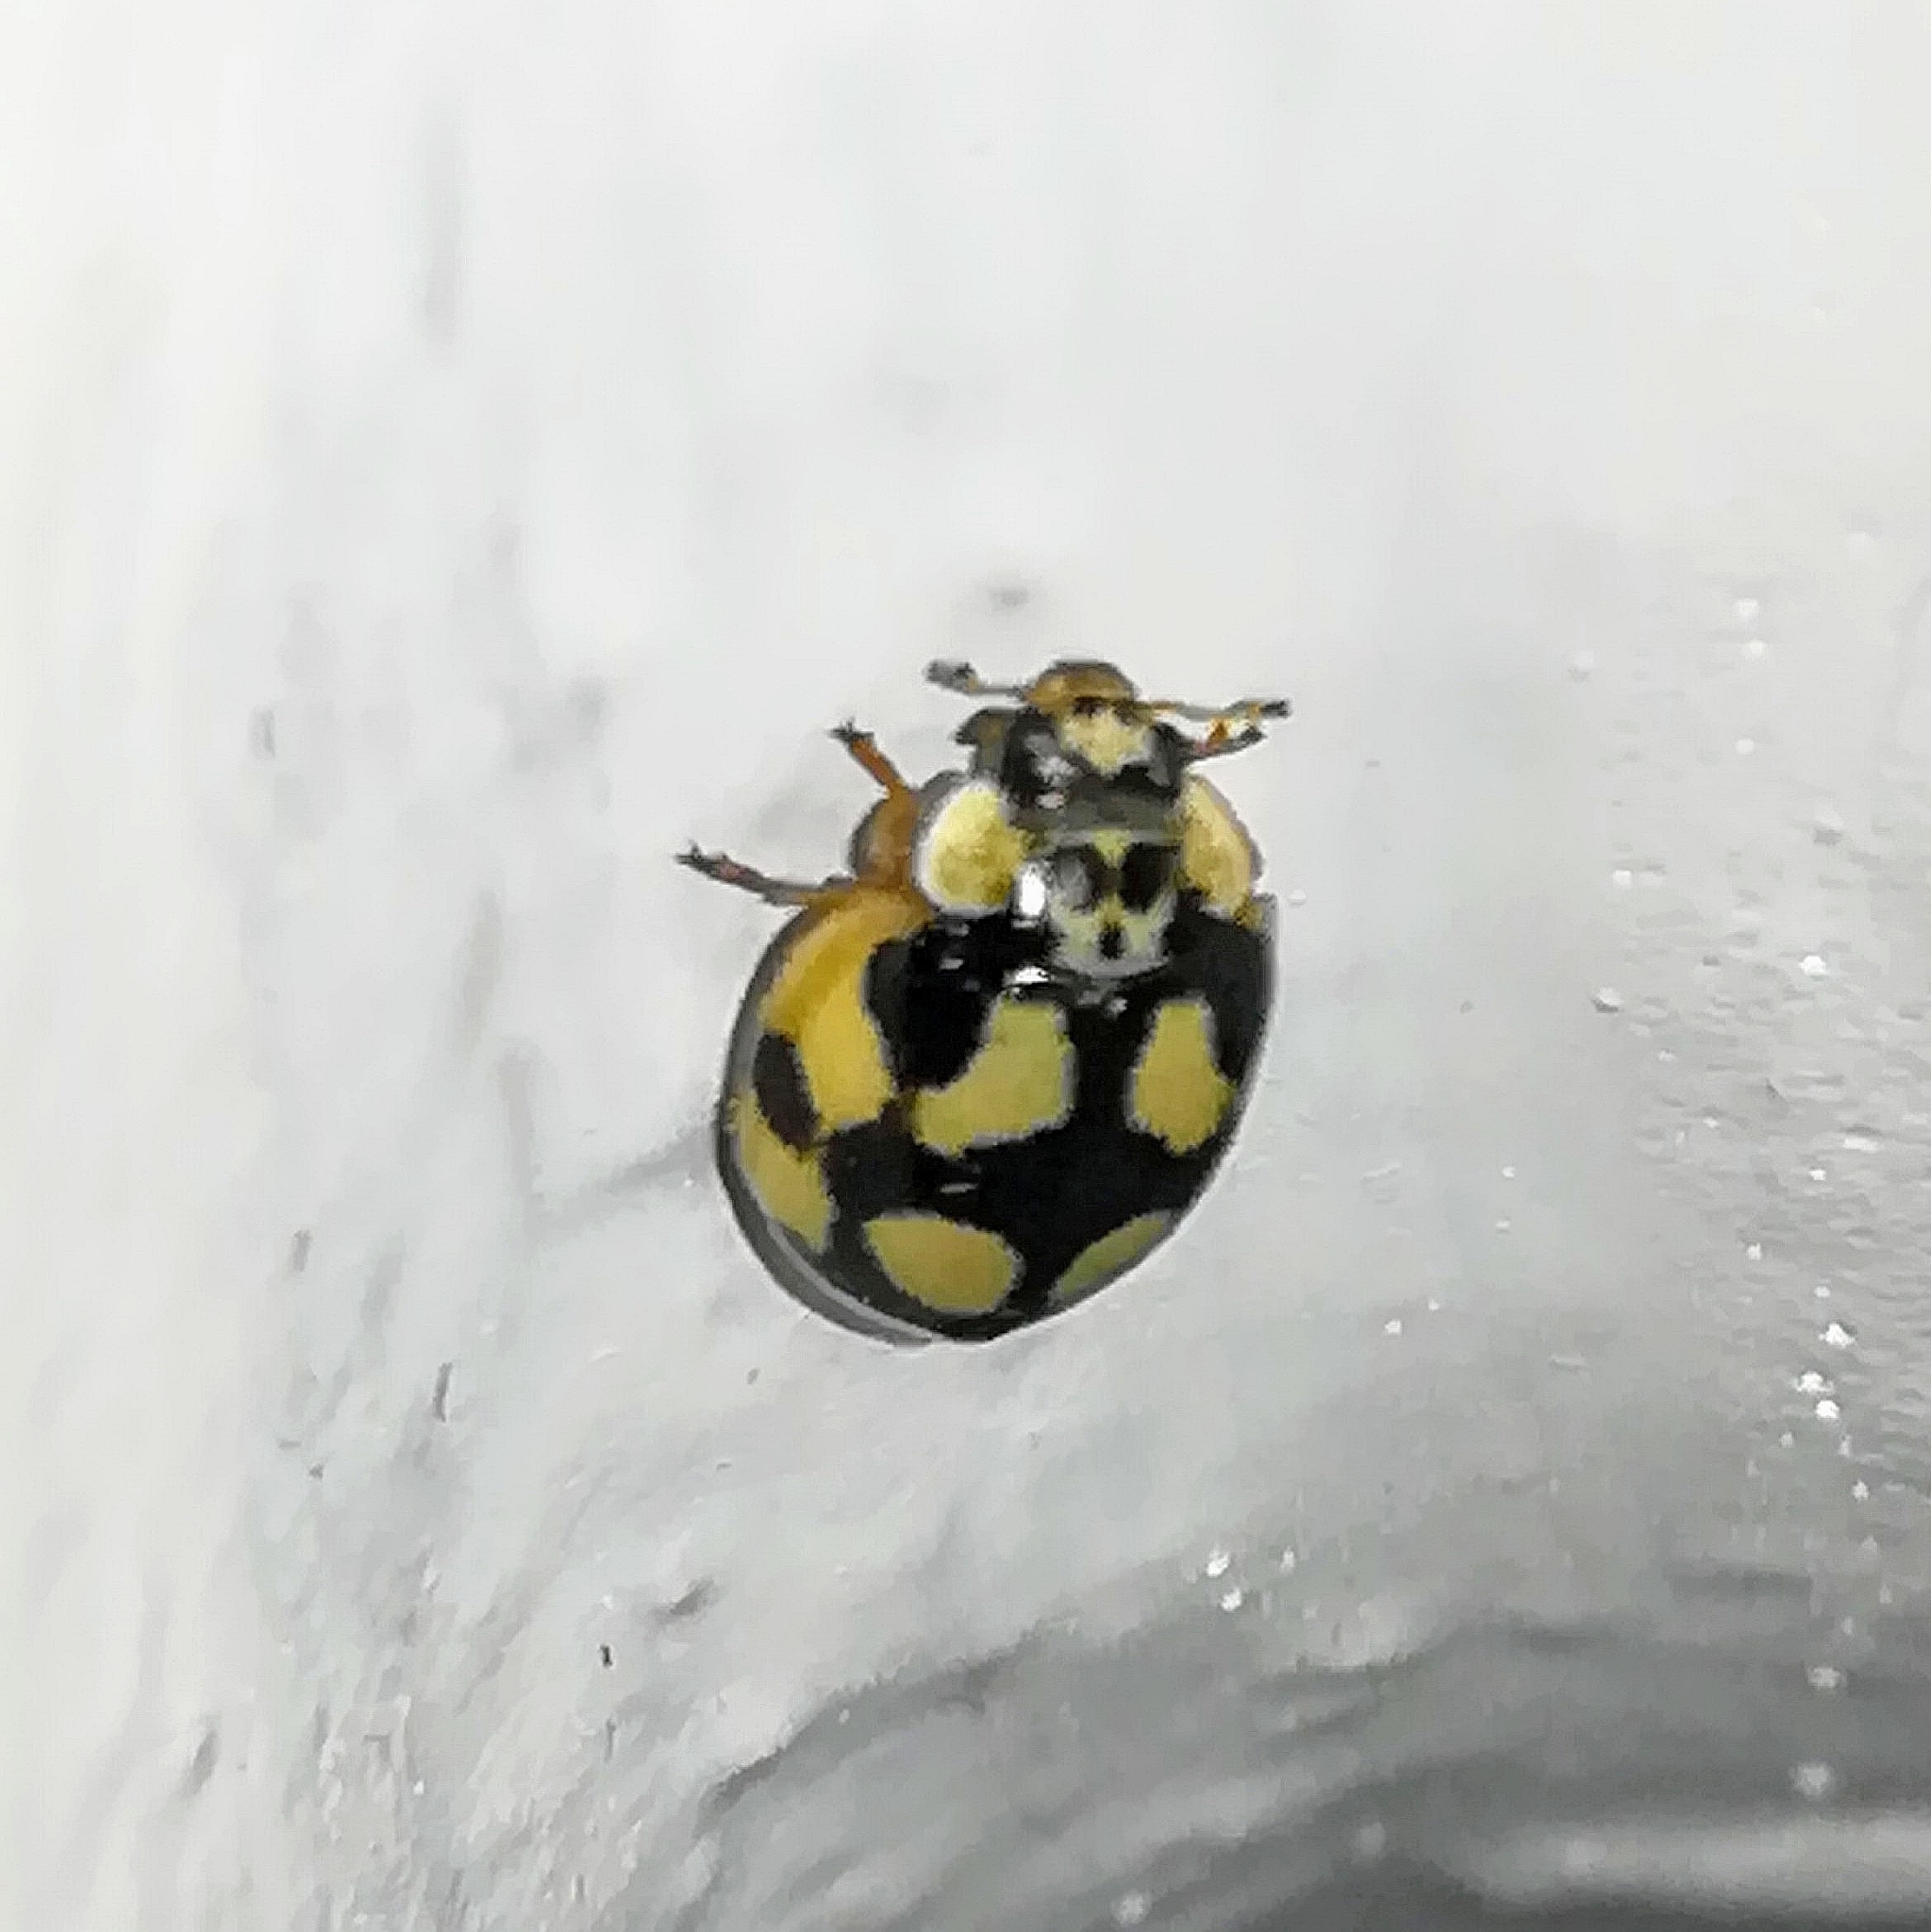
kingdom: Animalia
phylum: Arthropoda
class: Insecta
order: Coleoptera
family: Coccinellidae
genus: Adalia
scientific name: Adalia decempunctata
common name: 10-spot ladybird
